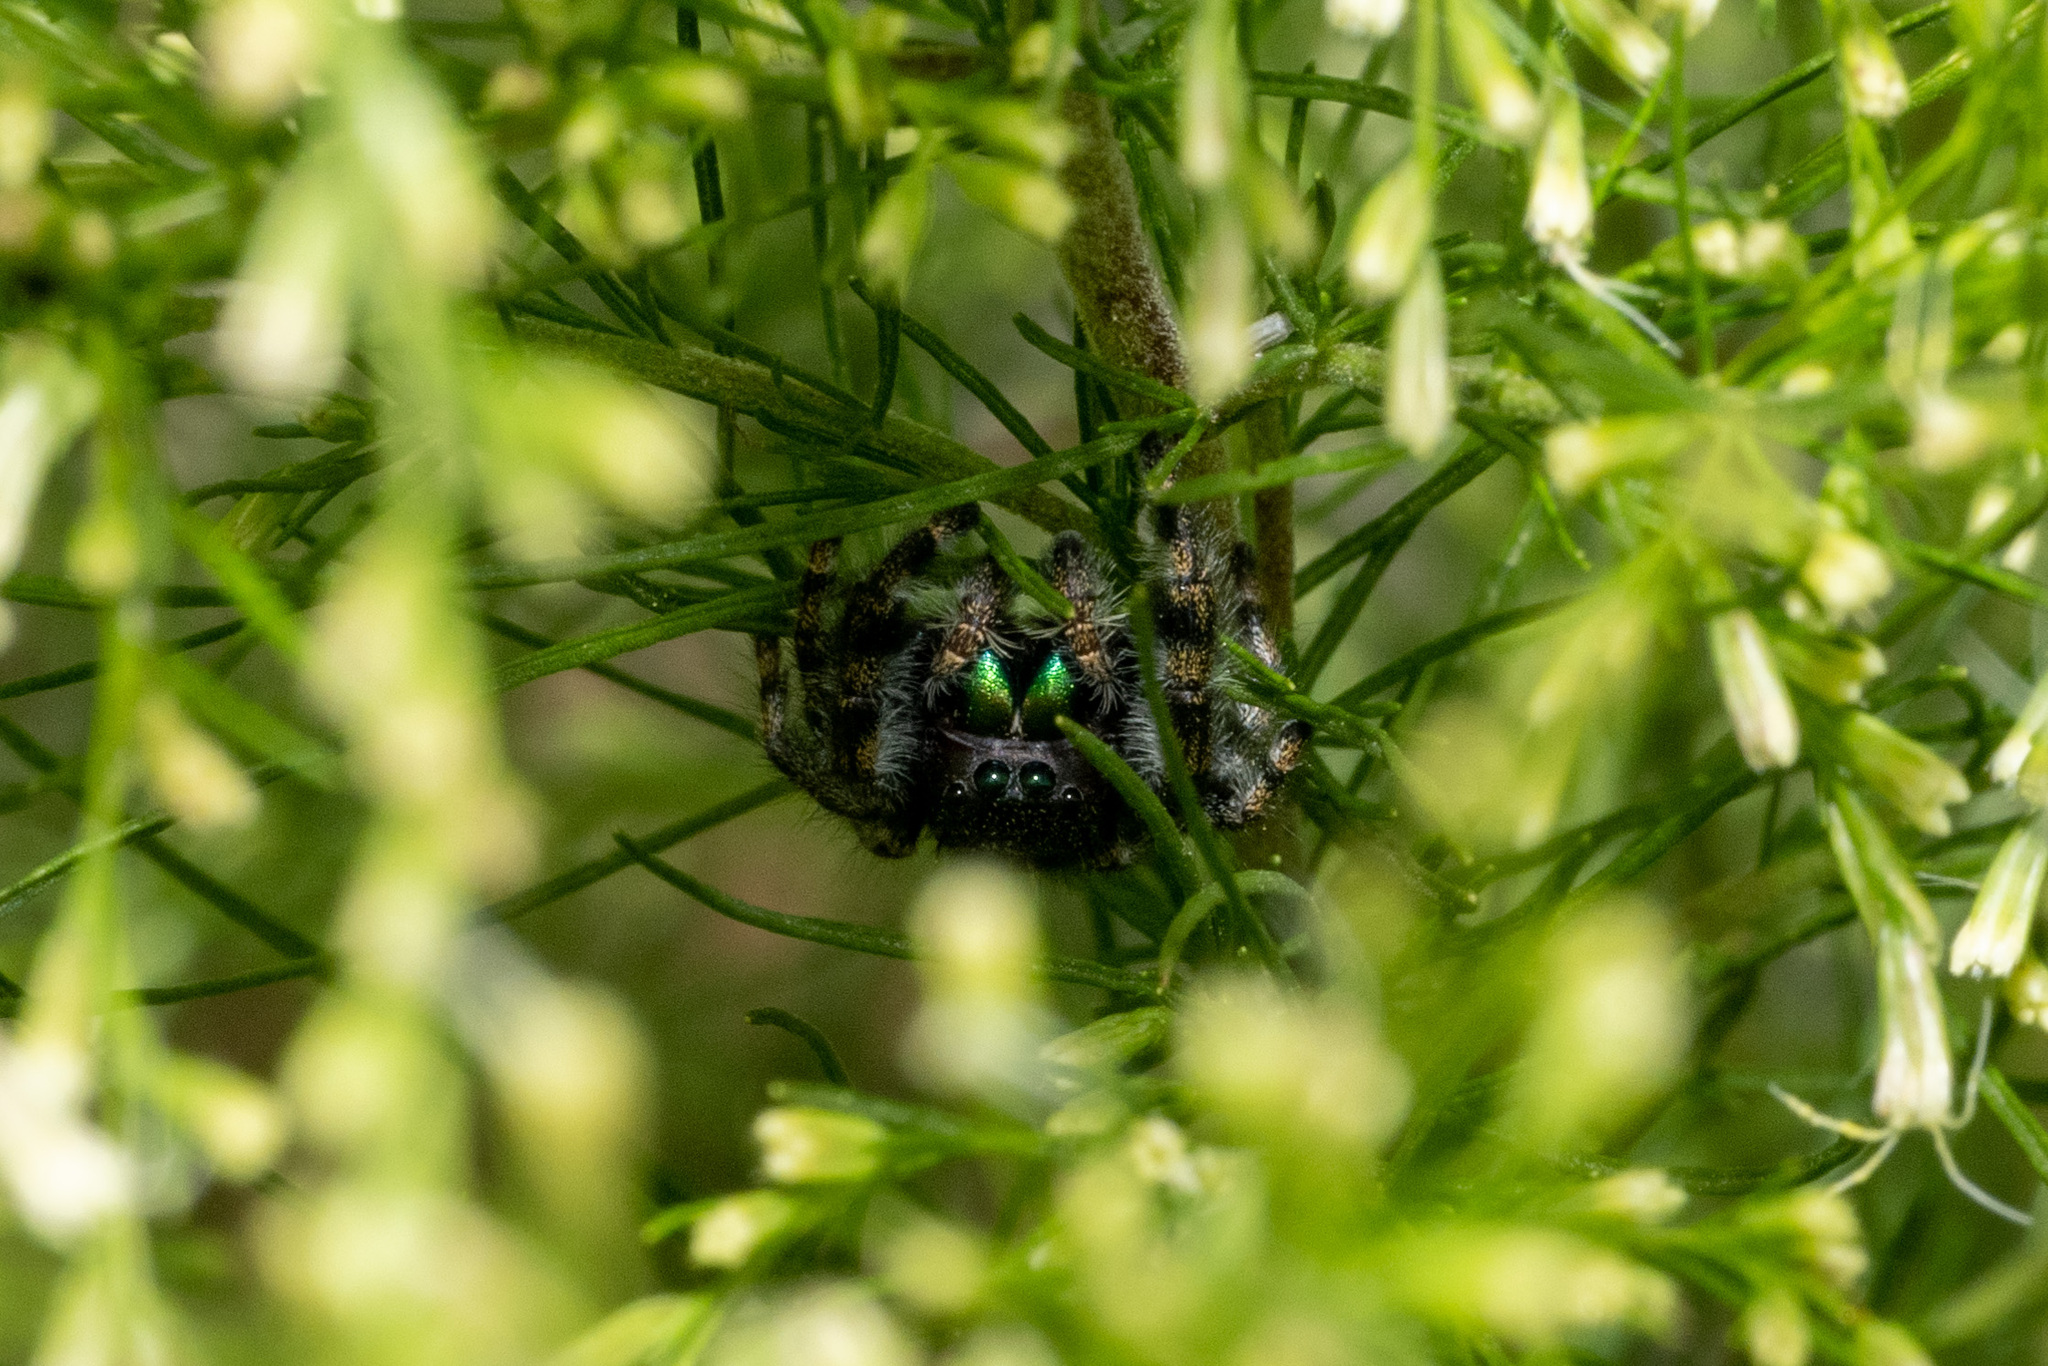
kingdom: Animalia
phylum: Arthropoda
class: Arachnida
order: Araneae
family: Salticidae
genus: Phidippus
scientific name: Phidippus audax
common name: Bold jumper
